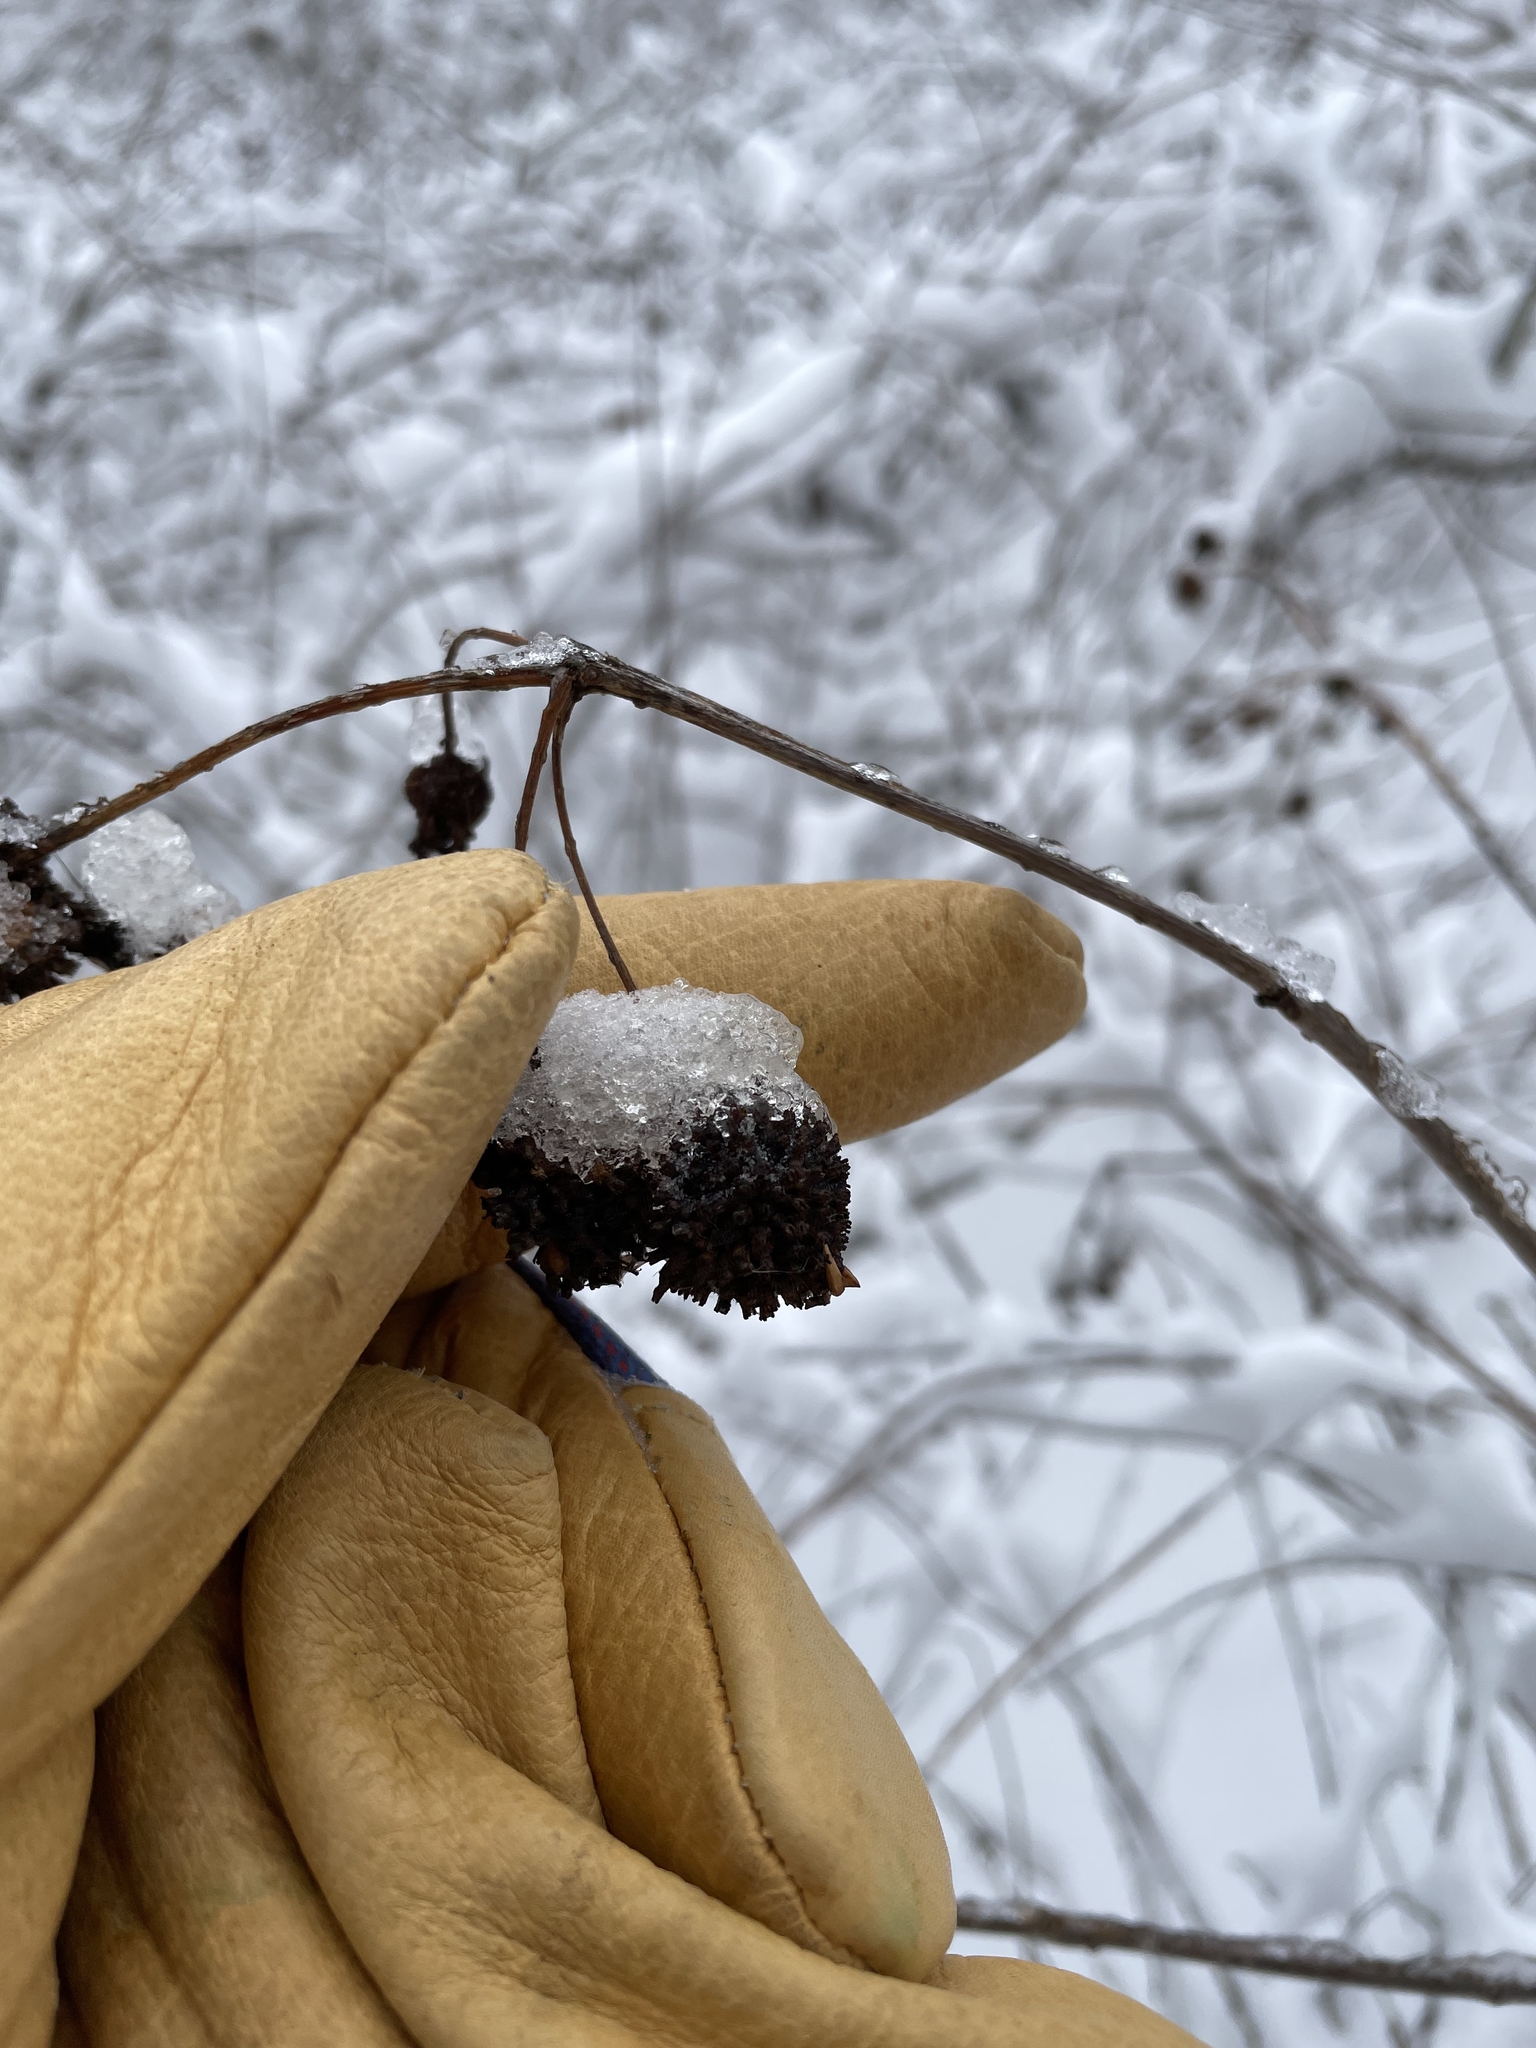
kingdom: Plantae
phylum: Tracheophyta
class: Magnoliopsida
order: Gentianales
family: Rubiaceae
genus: Cephalanthus
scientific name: Cephalanthus occidentalis
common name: Button-willow
